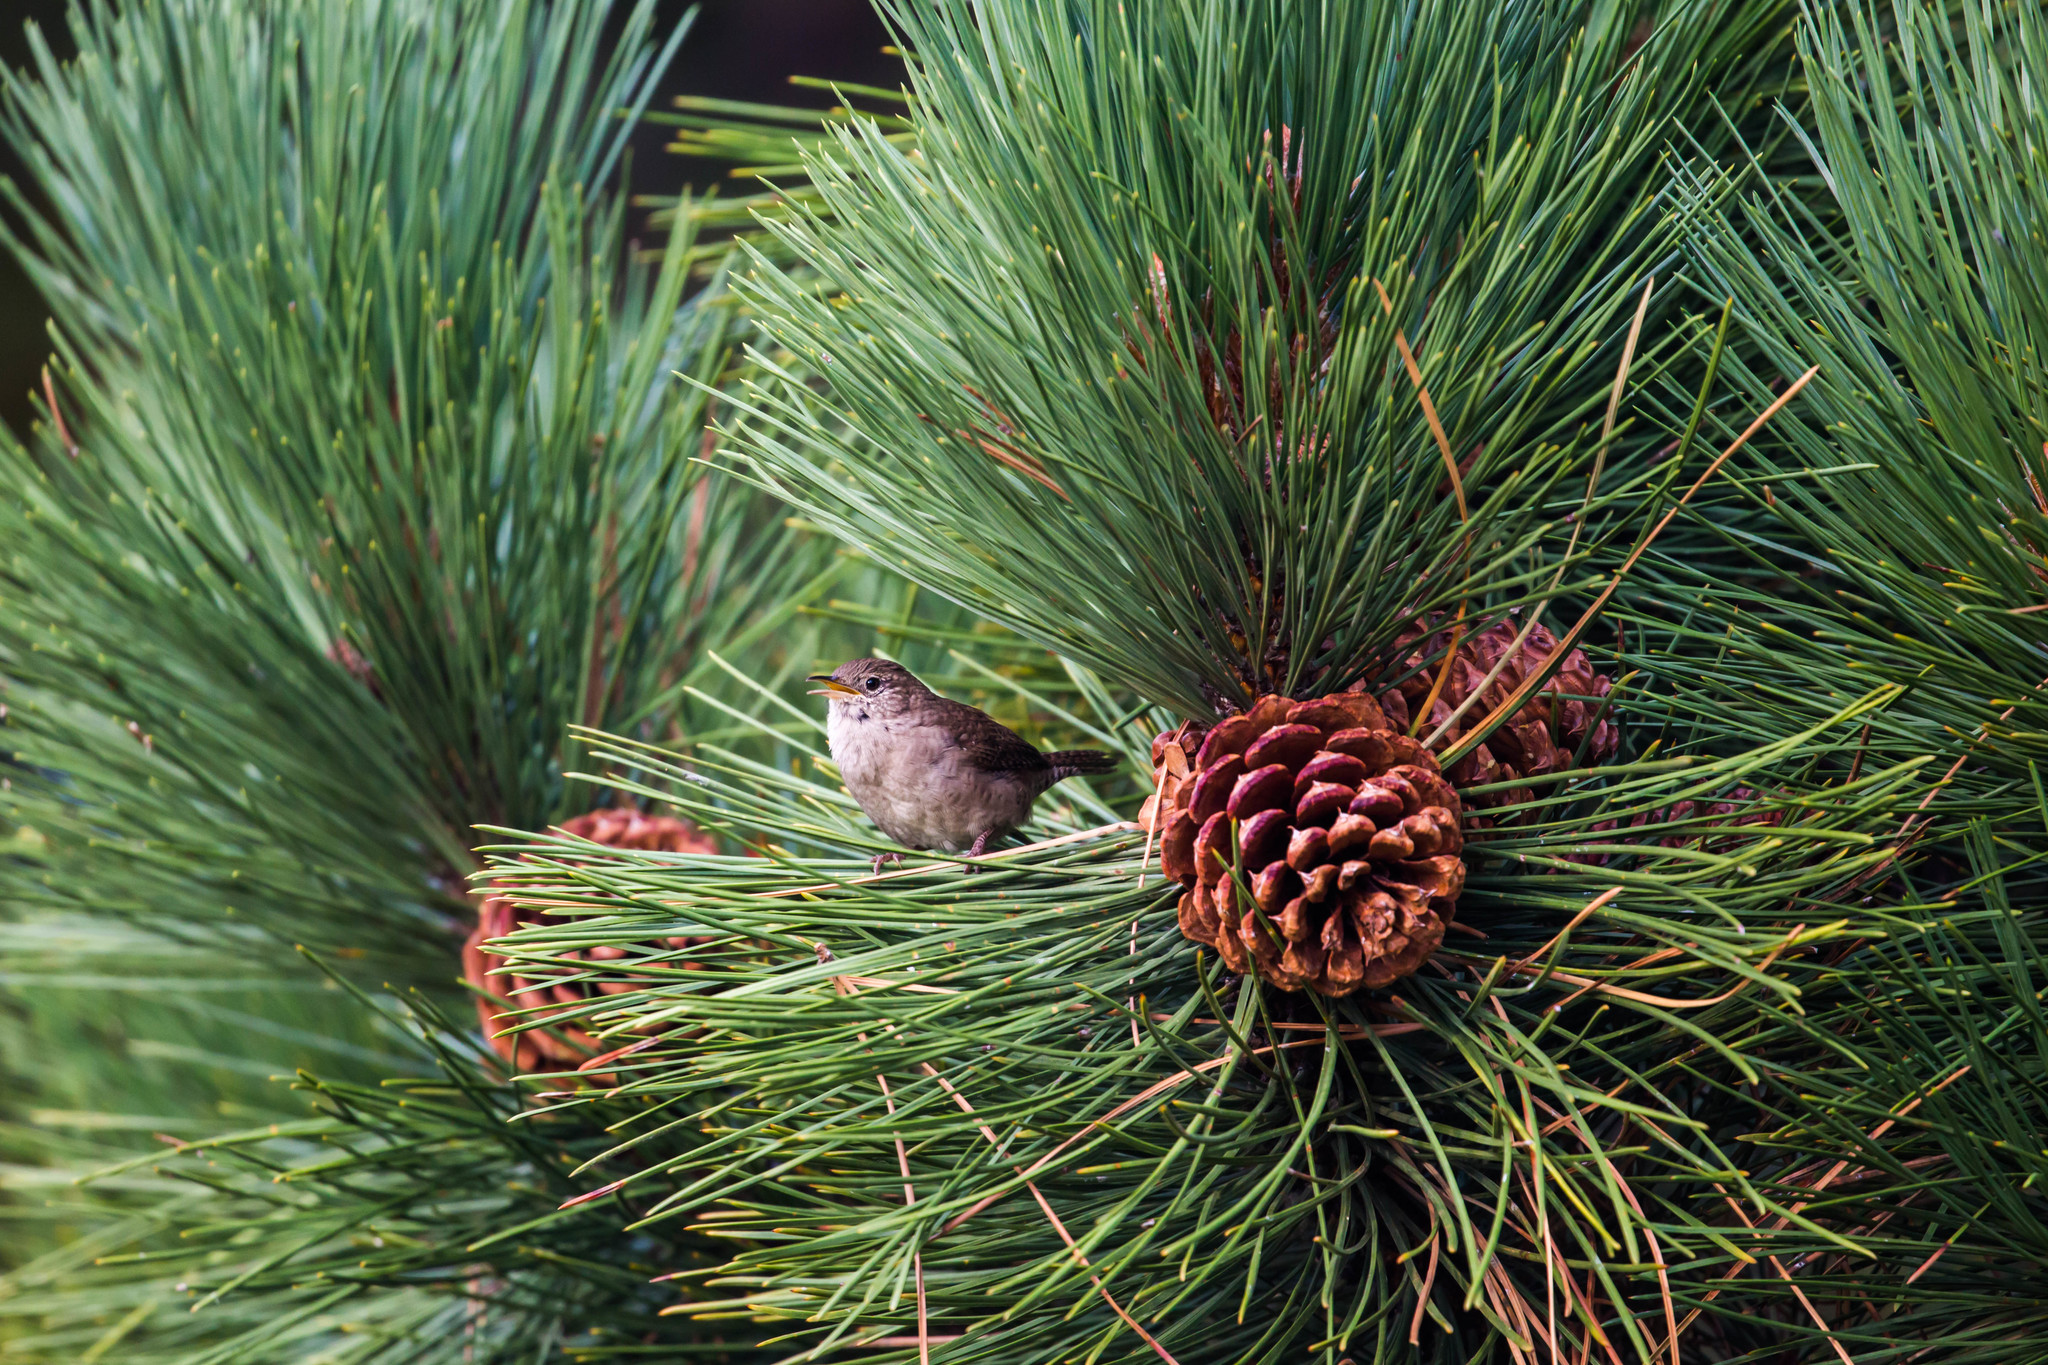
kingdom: Animalia
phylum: Chordata
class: Aves
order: Passeriformes
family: Troglodytidae
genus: Troglodytes
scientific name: Troglodytes aedon
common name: House wren
